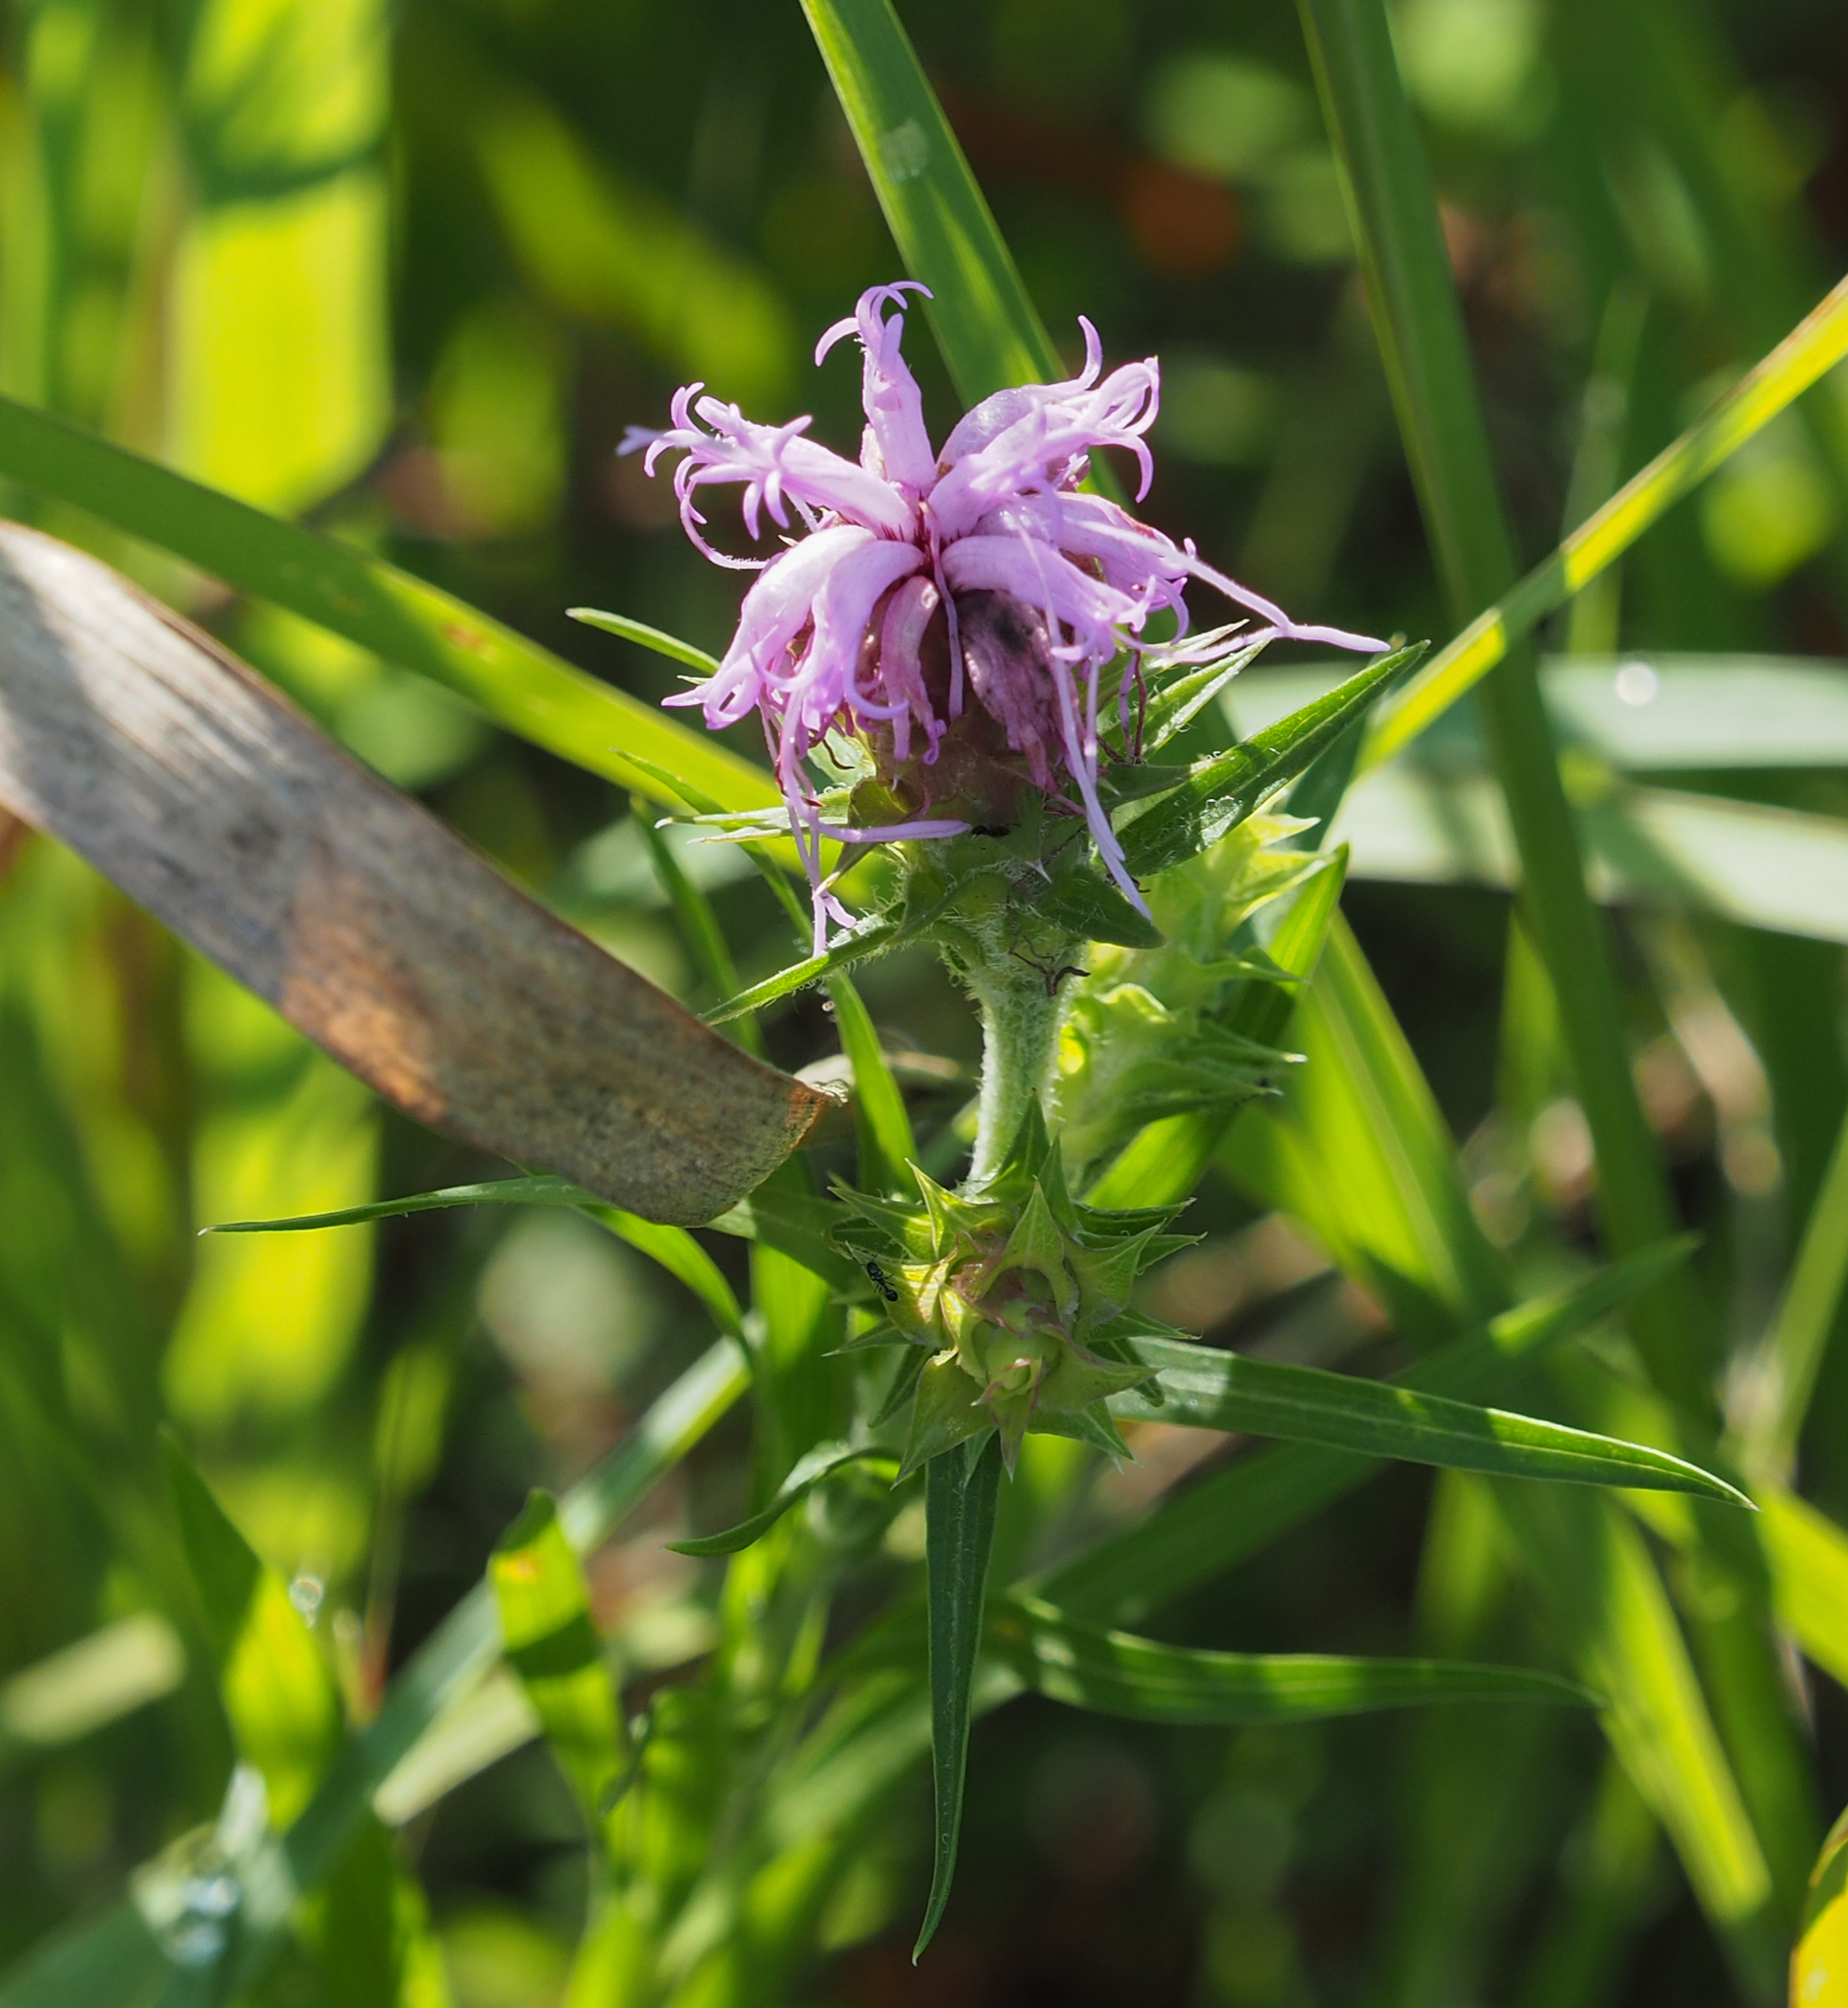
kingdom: Plantae
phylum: Tracheophyta
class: Magnoliopsida
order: Asterales
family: Asteraceae
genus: Liatris
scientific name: Liatris squarrosa
